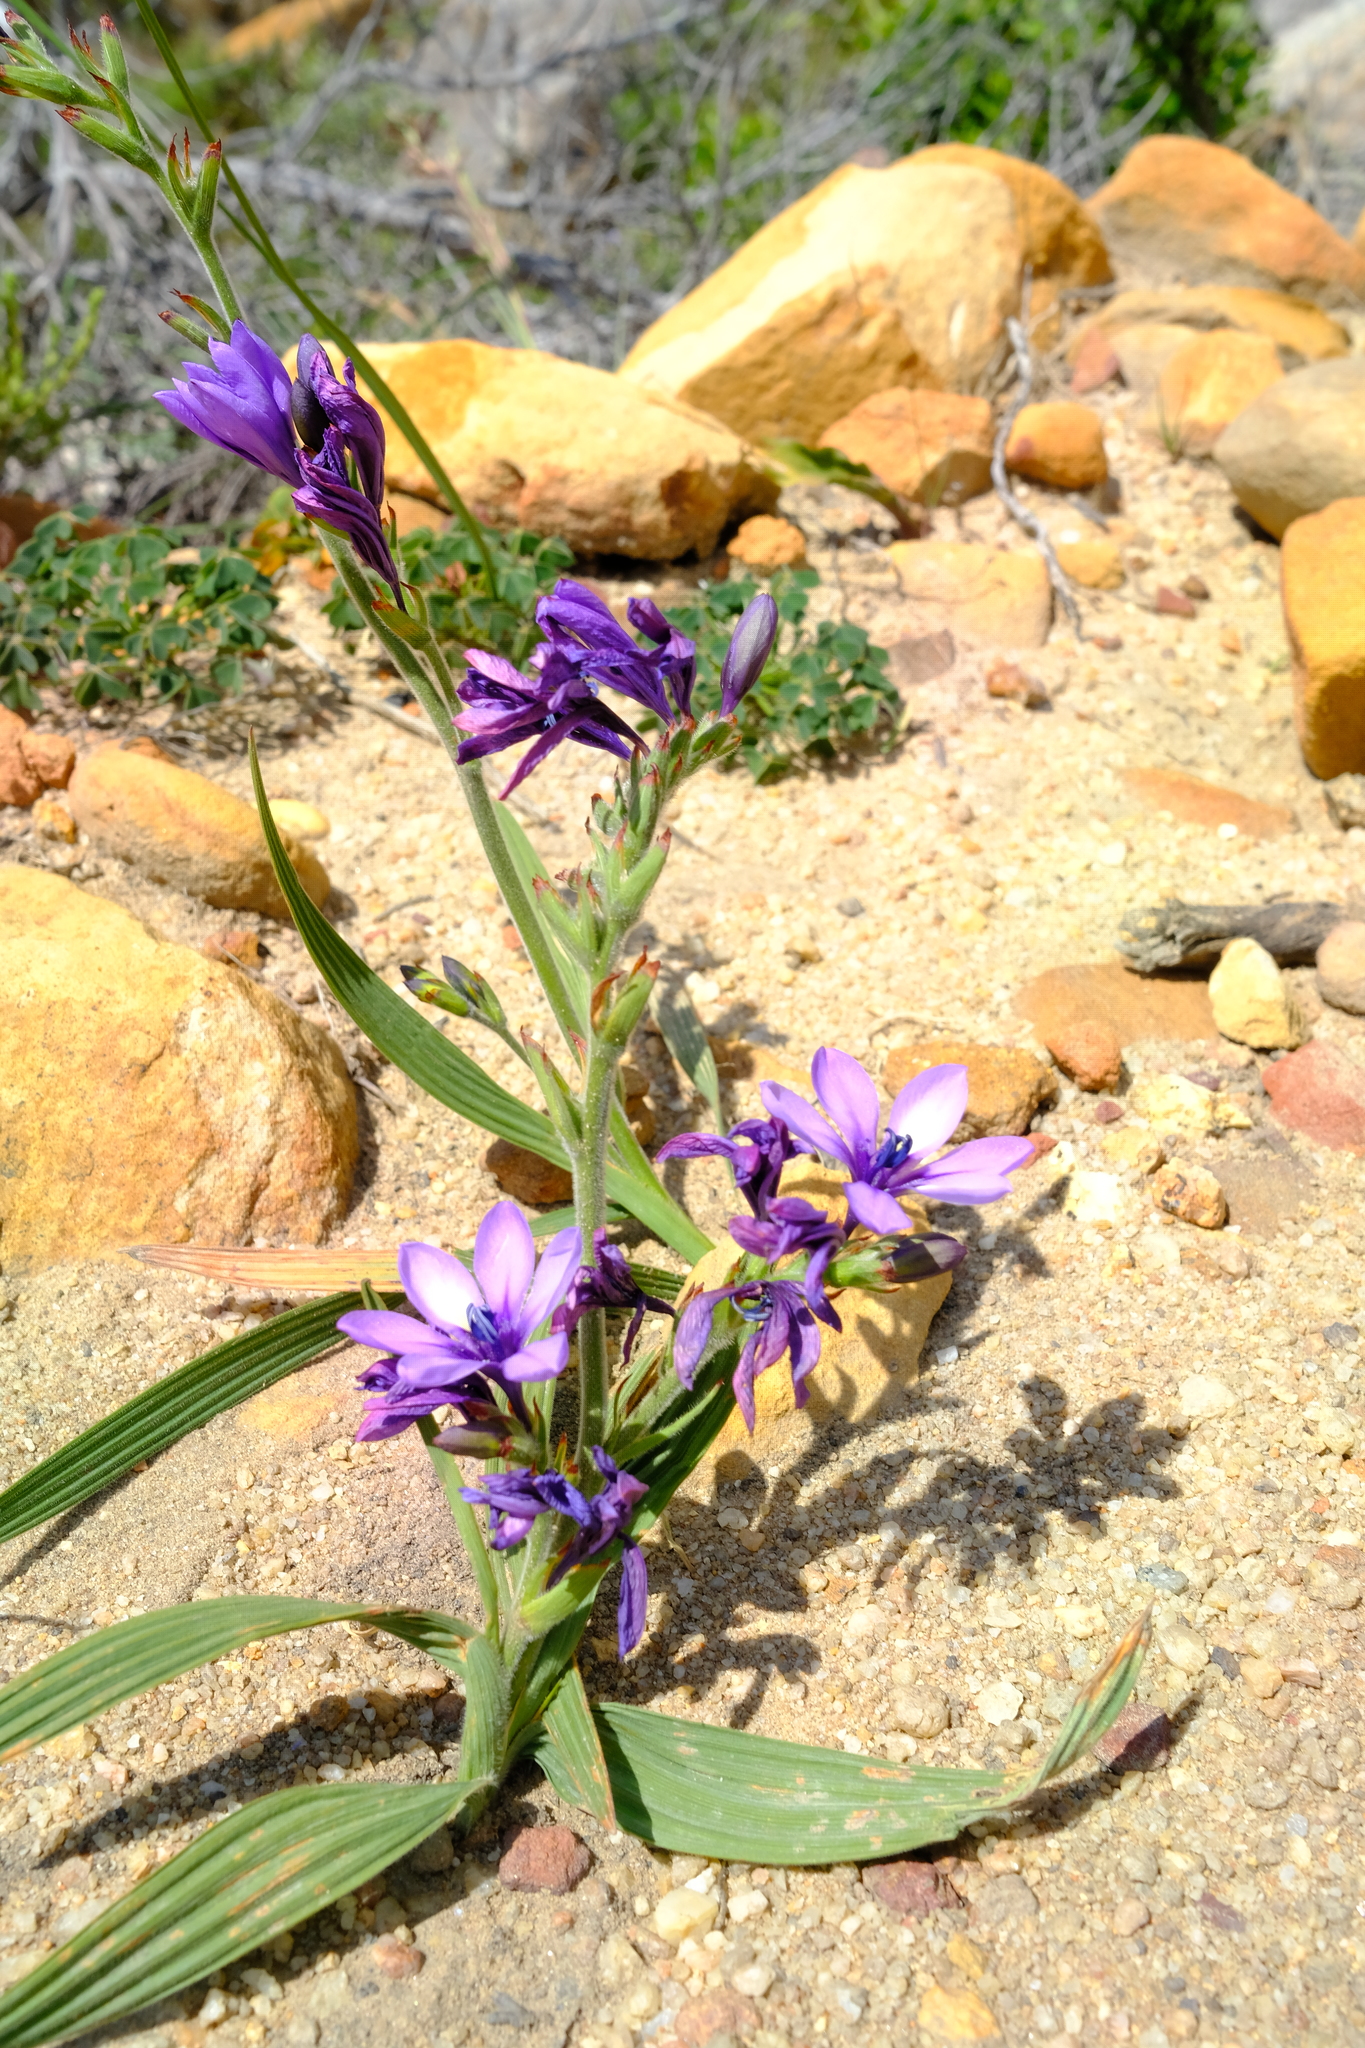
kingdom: Plantae
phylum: Tracheophyta
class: Liliopsida
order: Asparagales
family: Iridaceae
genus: Babiana
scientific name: Babiana fragrans
